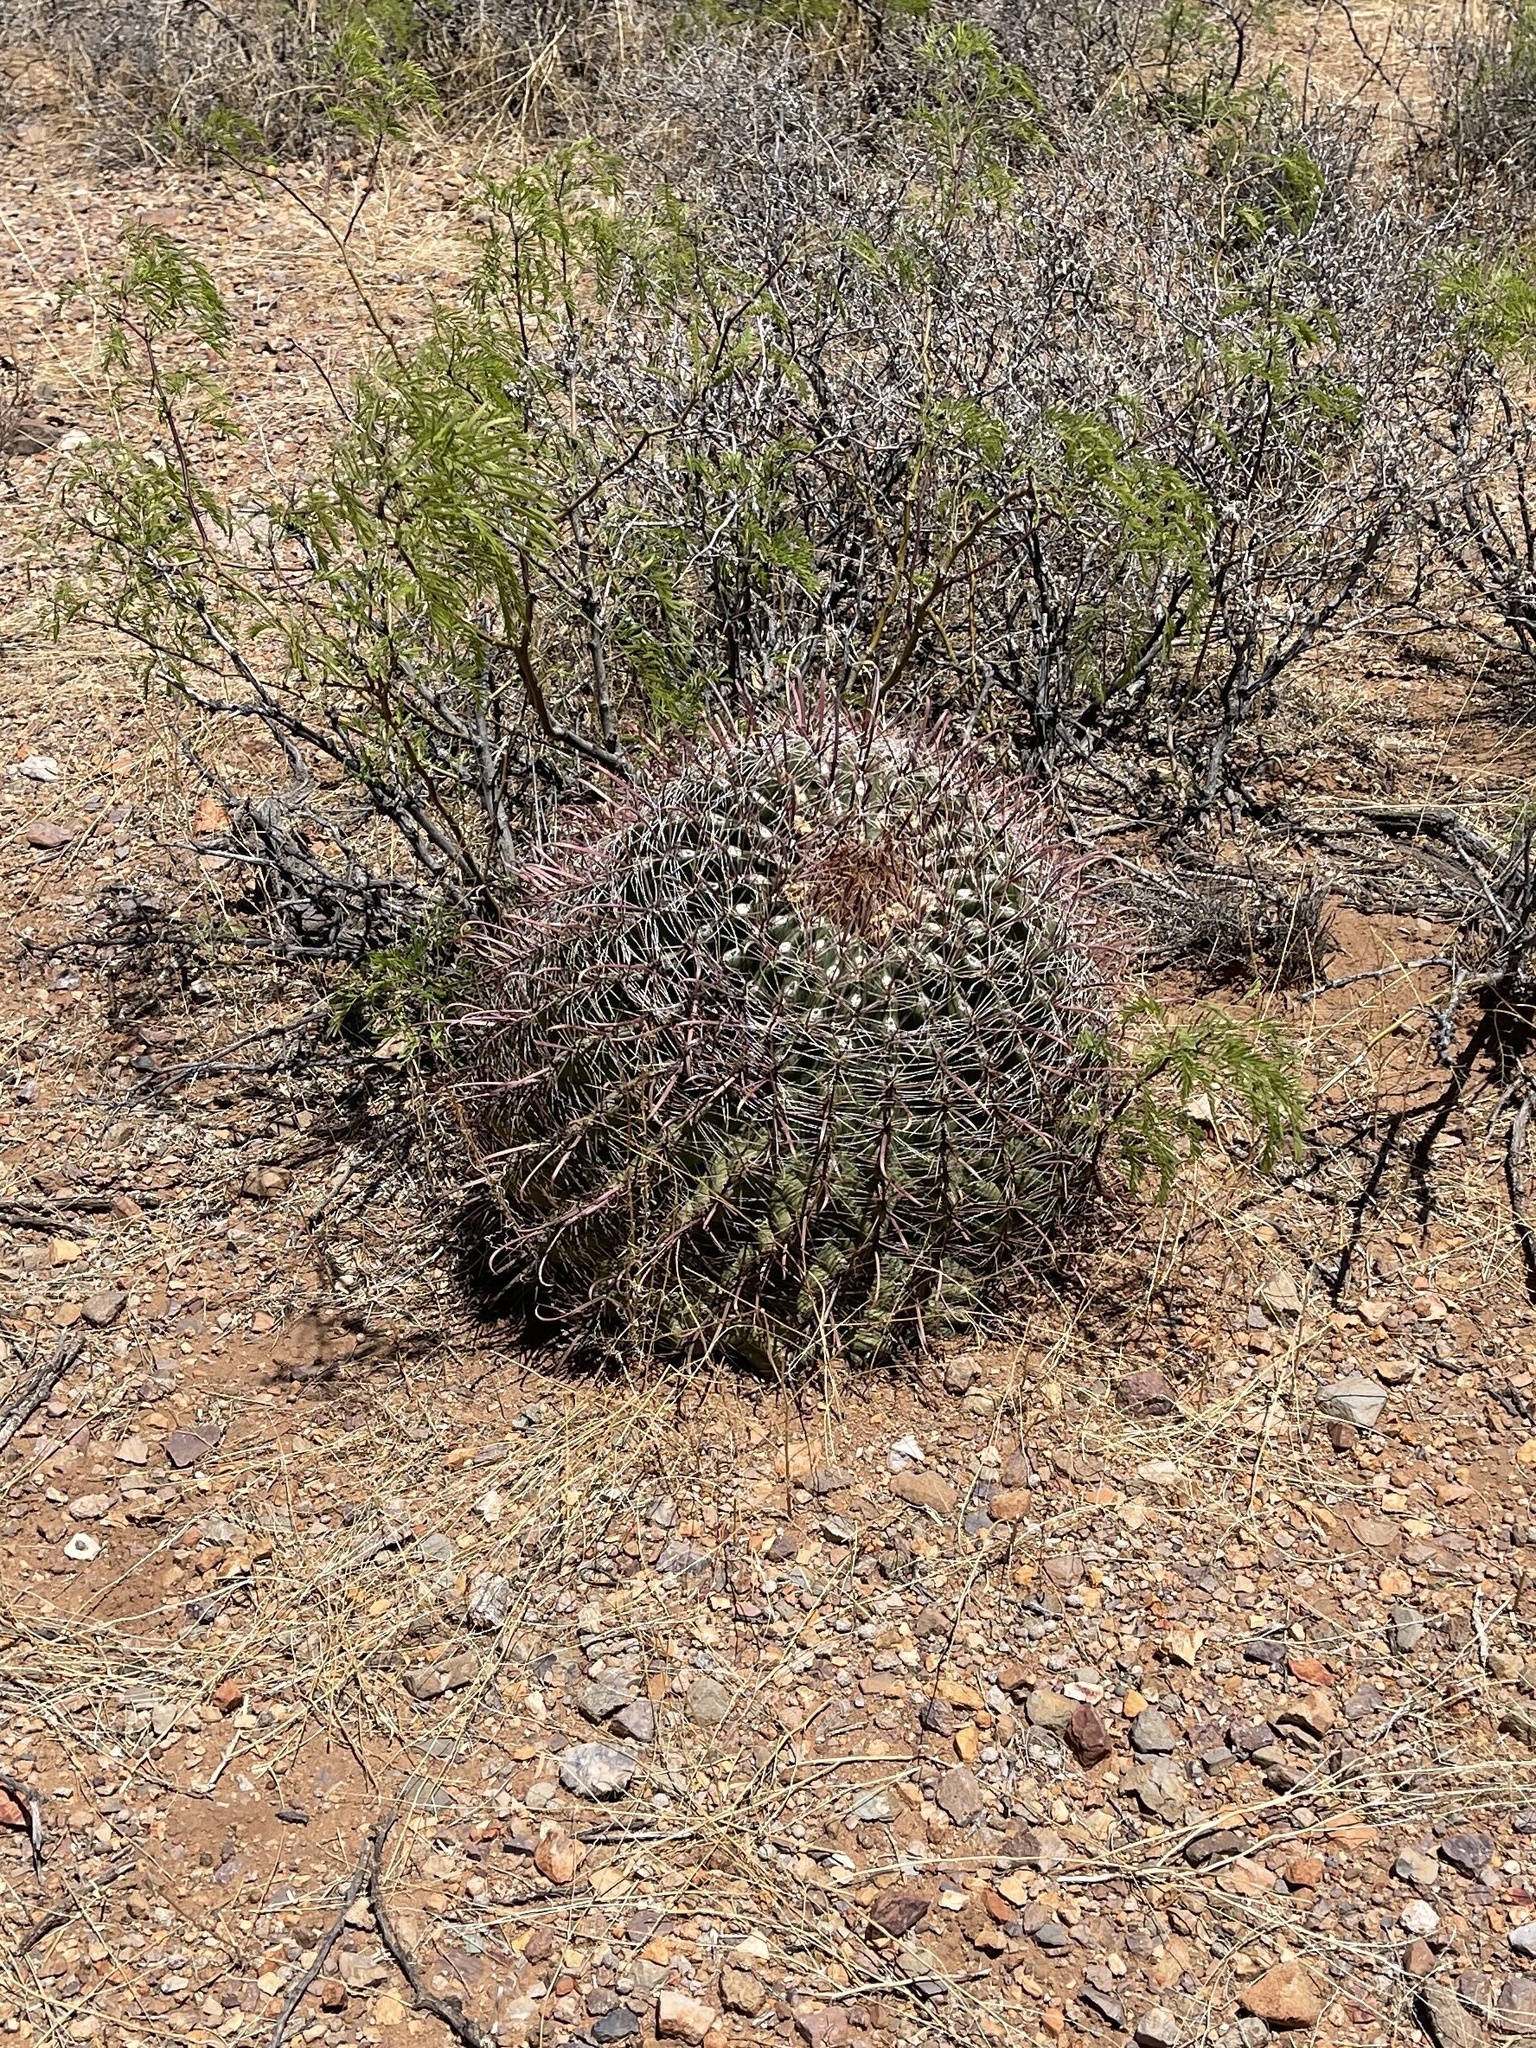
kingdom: Plantae
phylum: Tracheophyta
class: Magnoliopsida
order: Caryophyllales
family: Cactaceae
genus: Ferocactus
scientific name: Ferocactus wislizeni
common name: Candy barrel cactus
